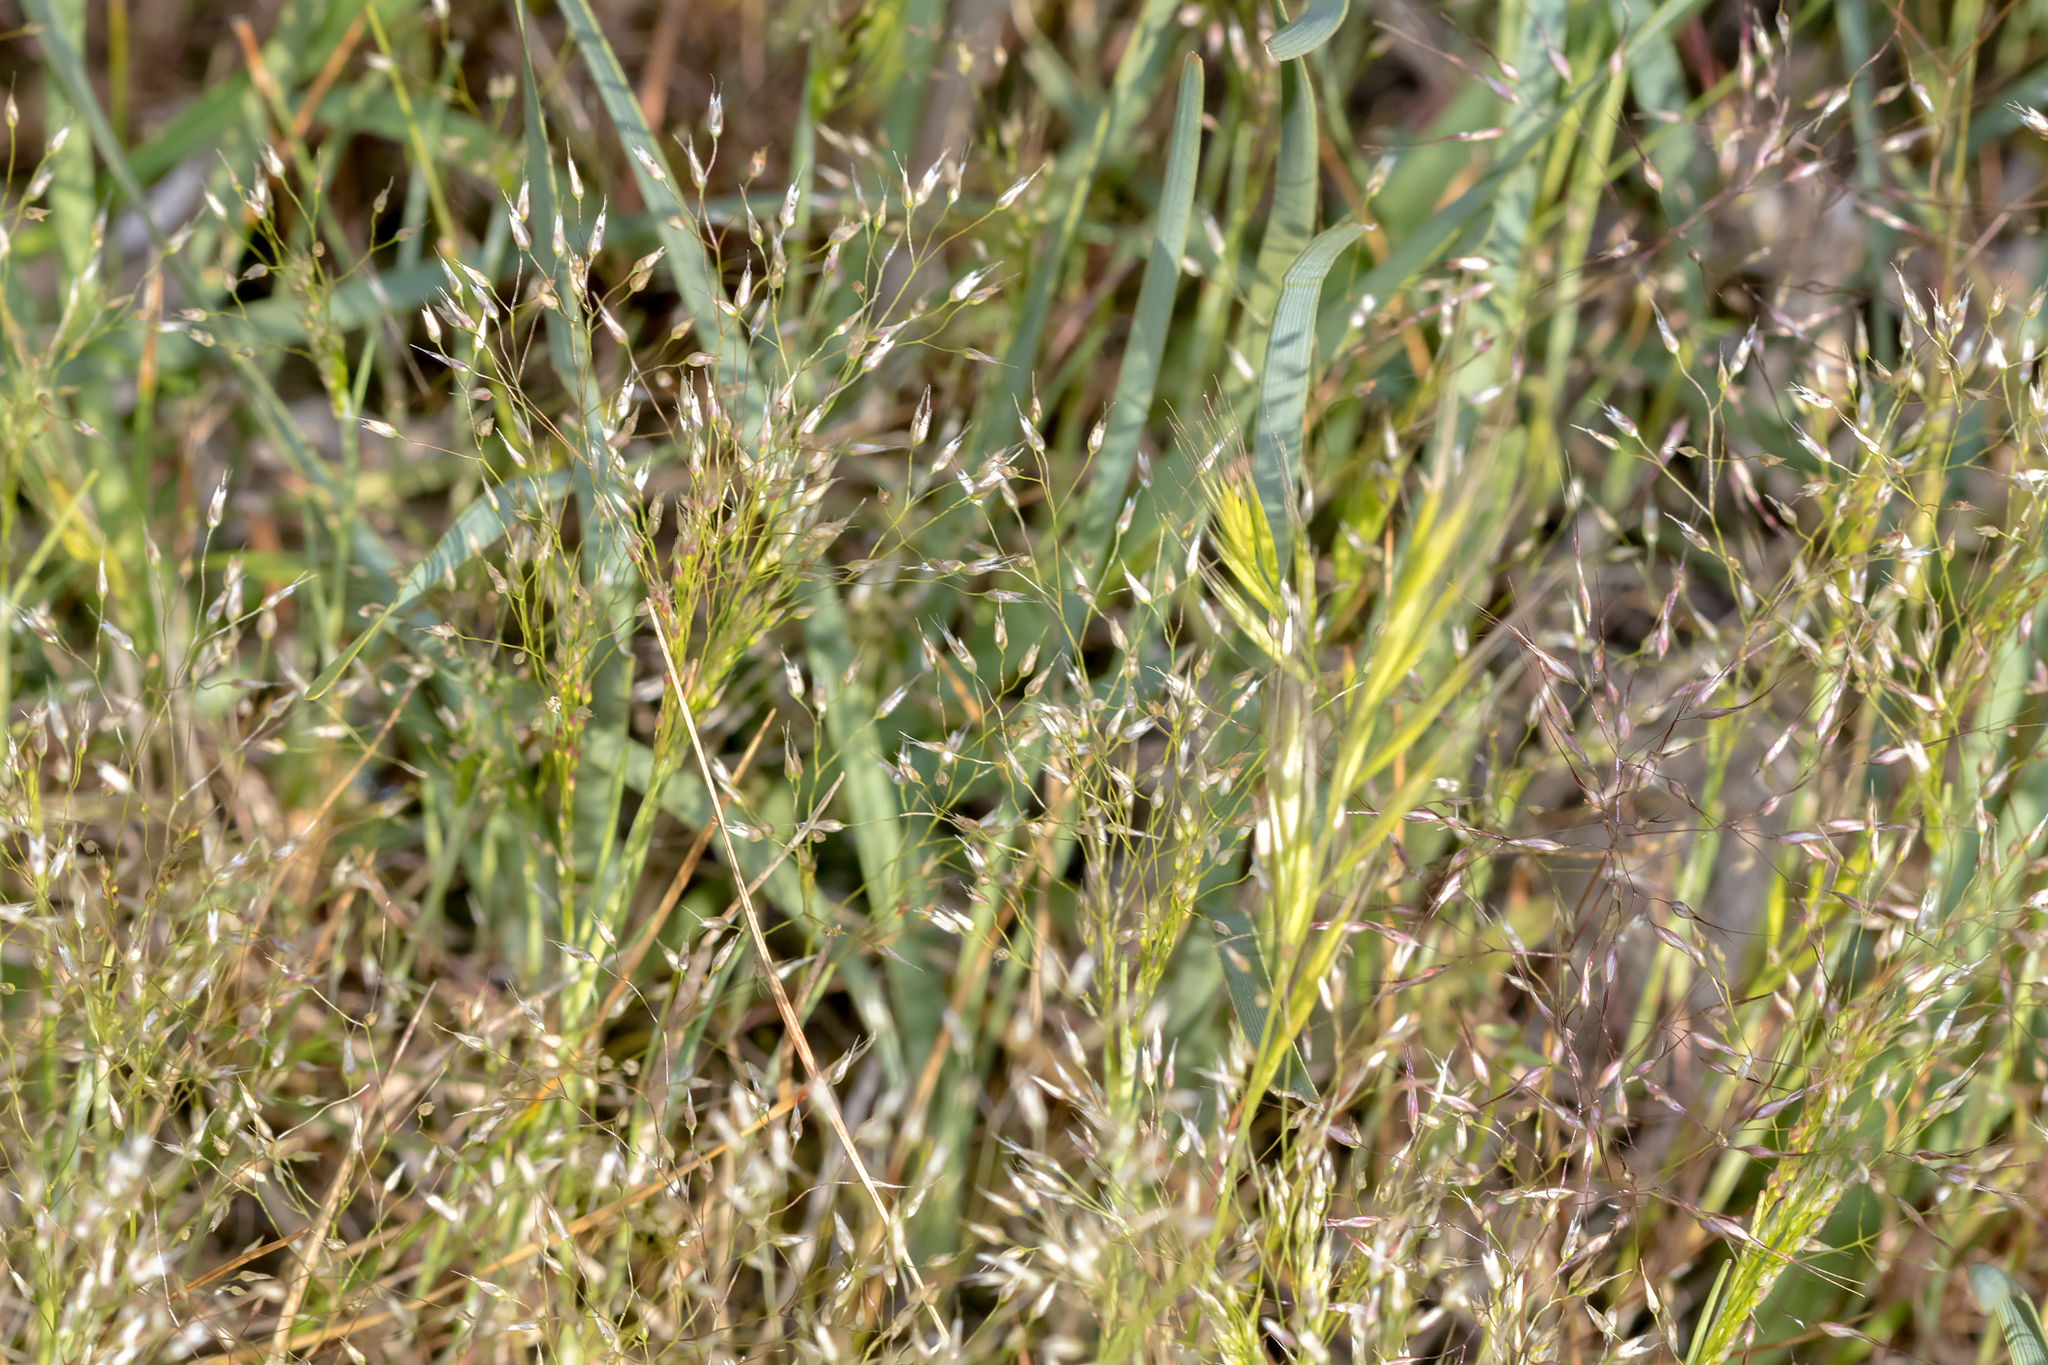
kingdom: Plantae
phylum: Tracheophyta
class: Liliopsida
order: Poales
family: Poaceae
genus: Aira
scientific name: Aira cupaniana
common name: Silver hairgrass
